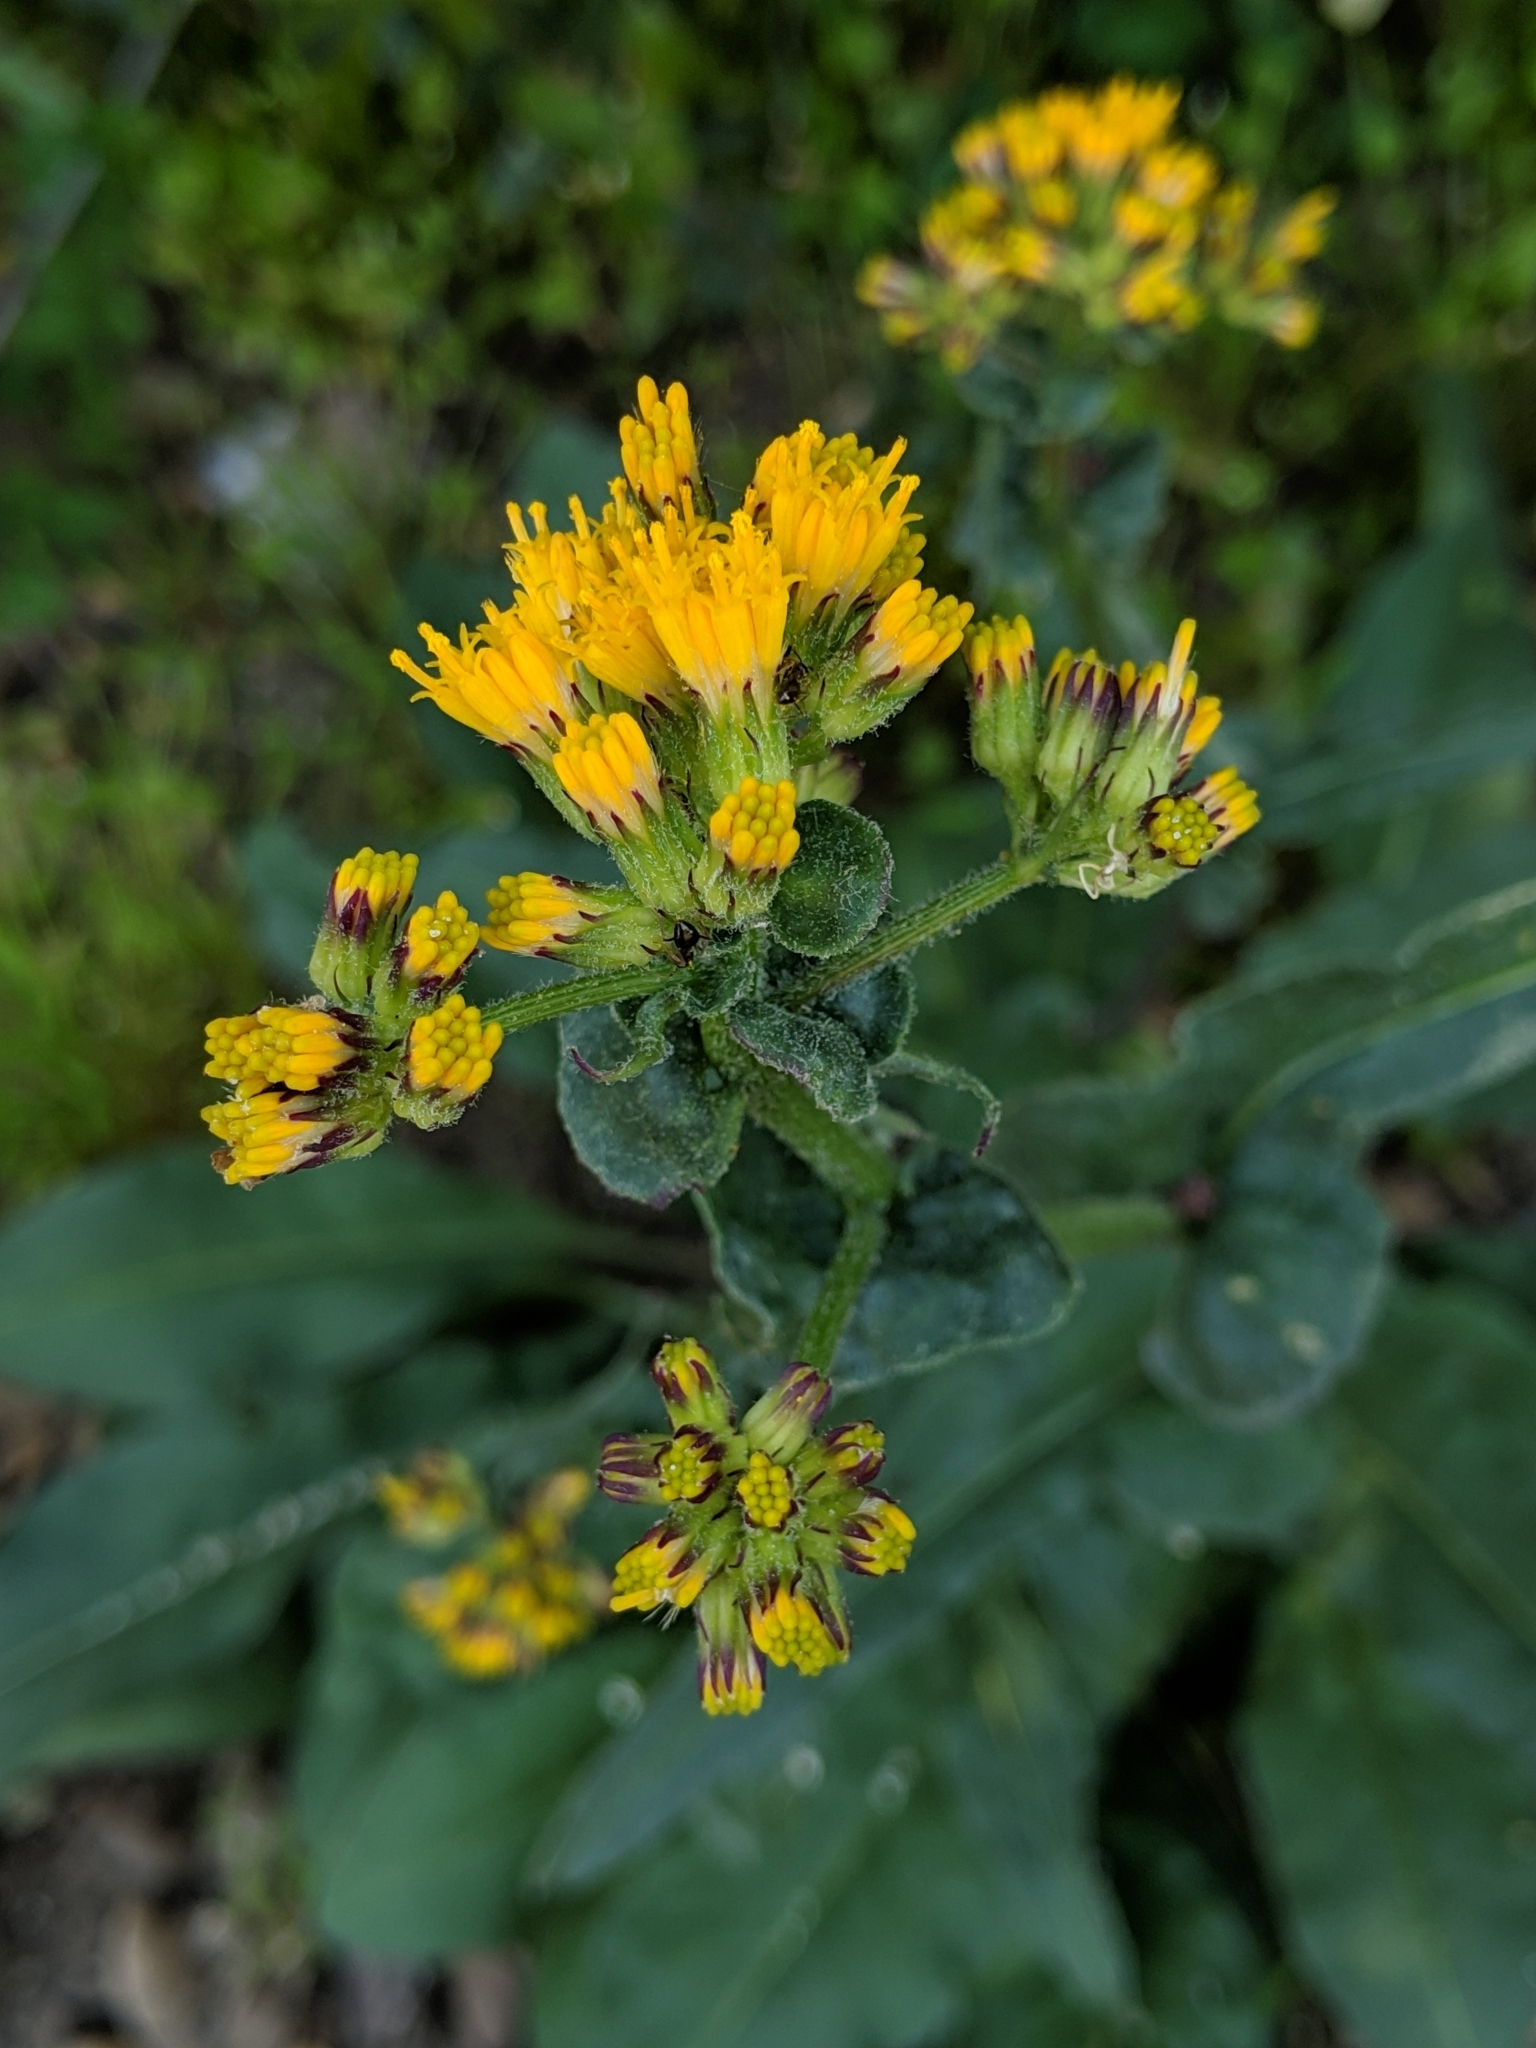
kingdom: Plantae
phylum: Tracheophyta
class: Magnoliopsida
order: Asterales
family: Asteraceae
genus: Senecio
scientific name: Senecio aronicoides
